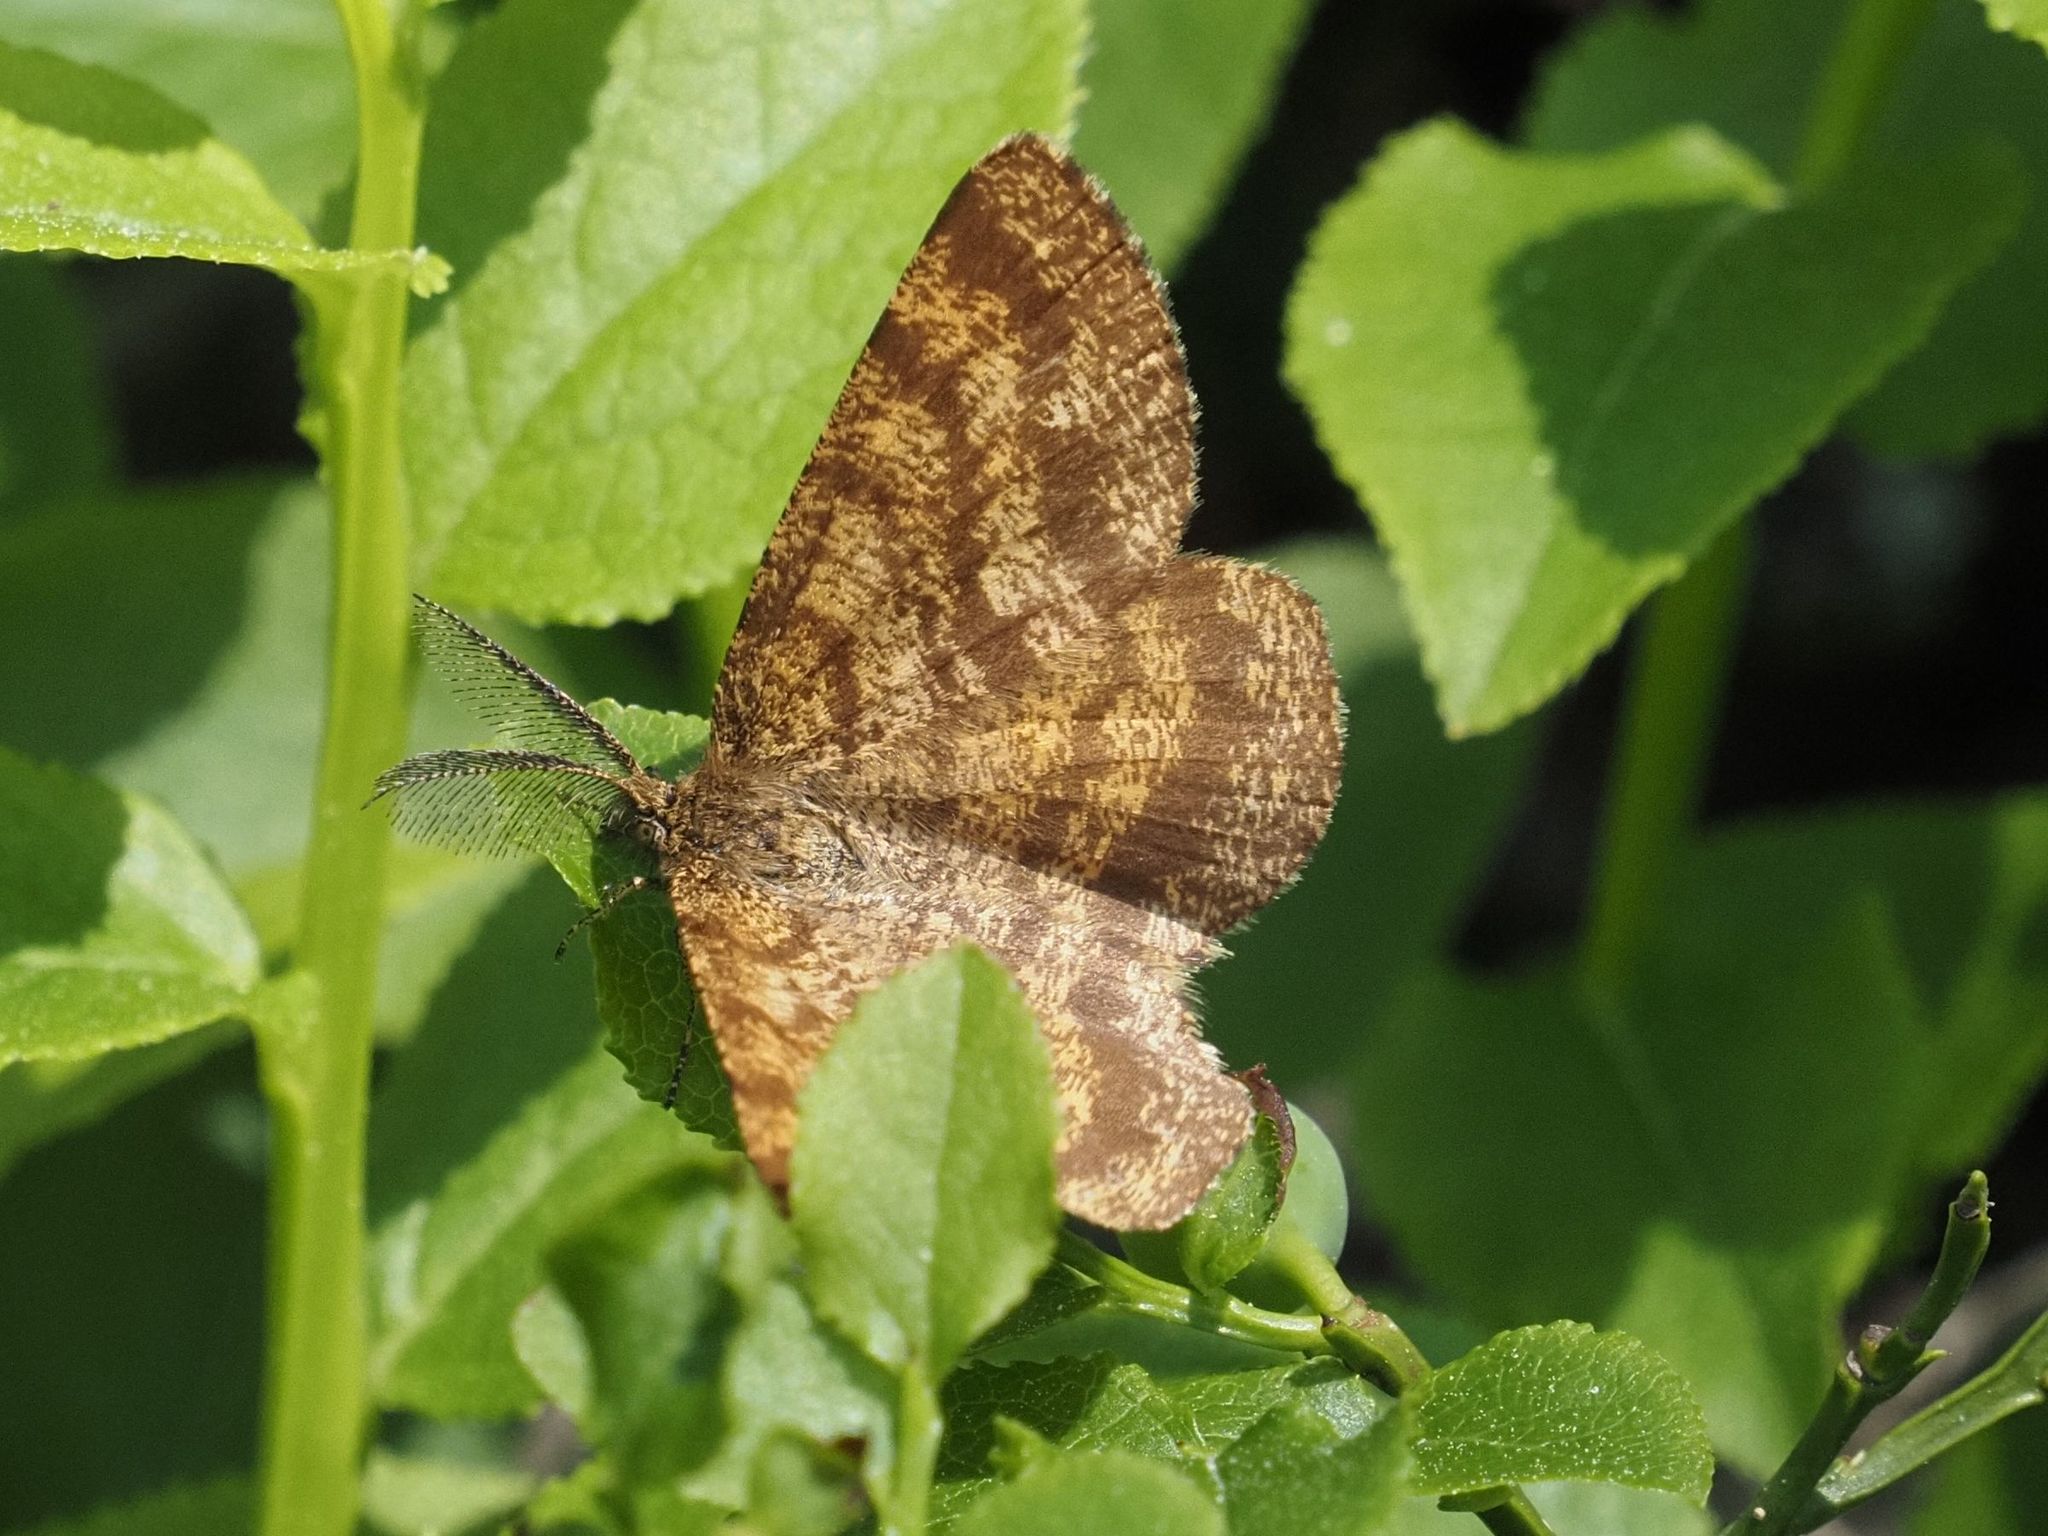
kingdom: Animalia
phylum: Arthropoda
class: Insecta
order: Lepidoptera
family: Geometridae
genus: Ematurga
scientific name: Ematurga atomaria
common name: Common heath
